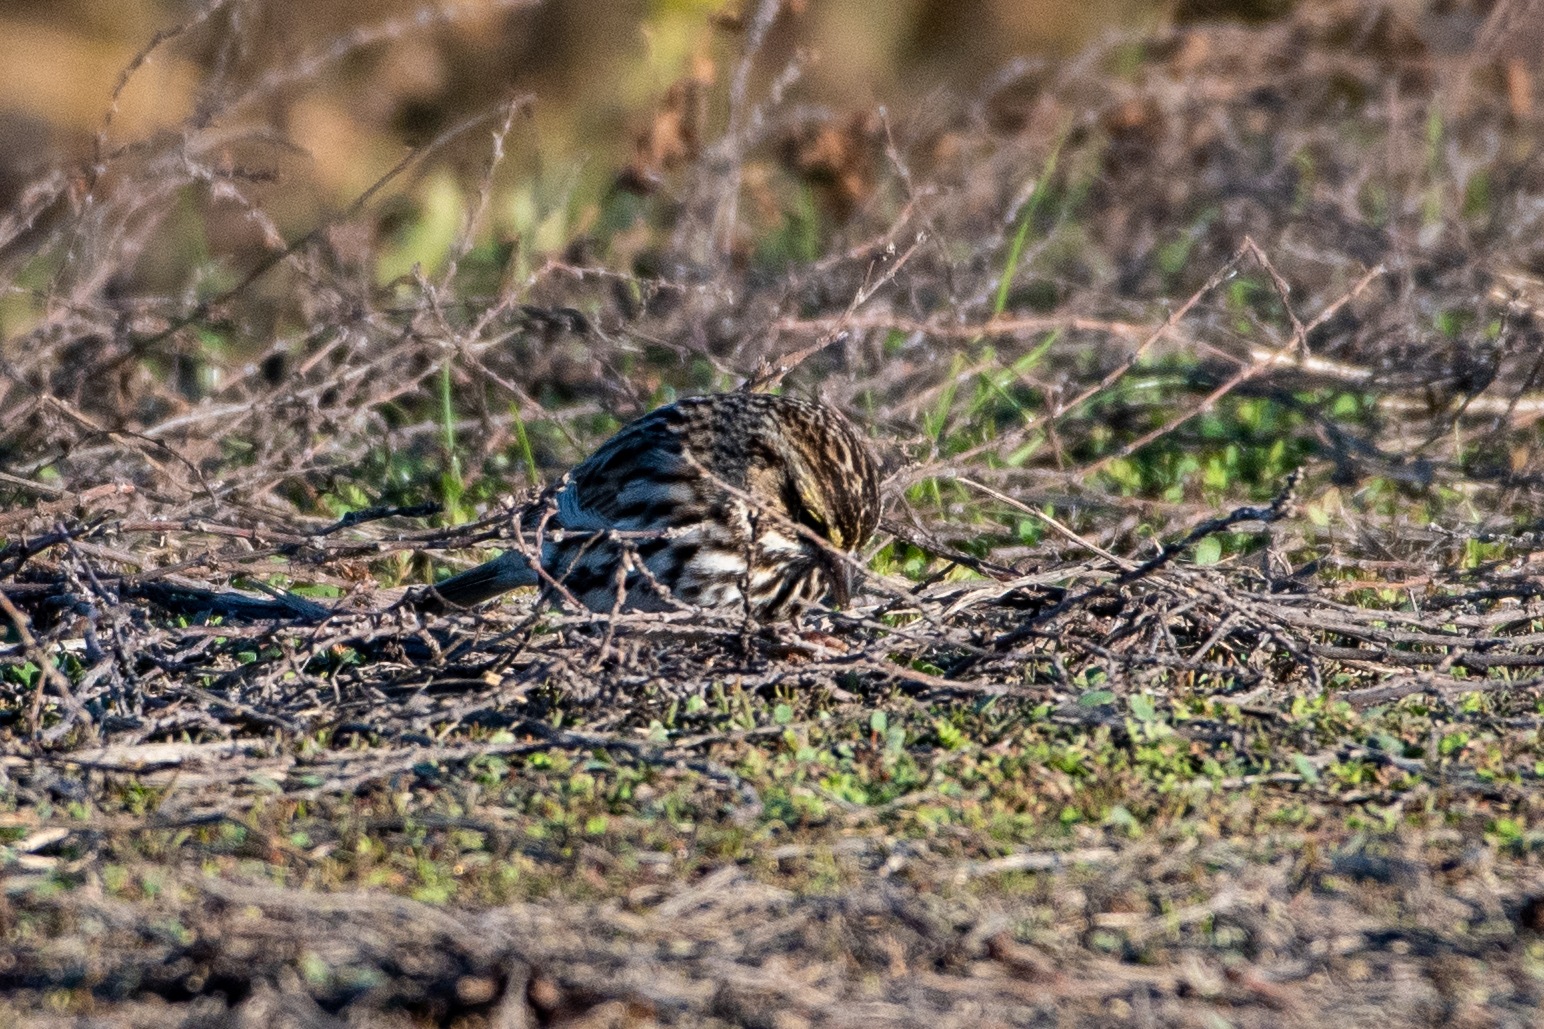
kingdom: Animalia
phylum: Chordata
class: Aves
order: Passeriformes
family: Passerellidae
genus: Passerculus
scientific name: Passerculus sandwichensis
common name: Savannah sparrow
